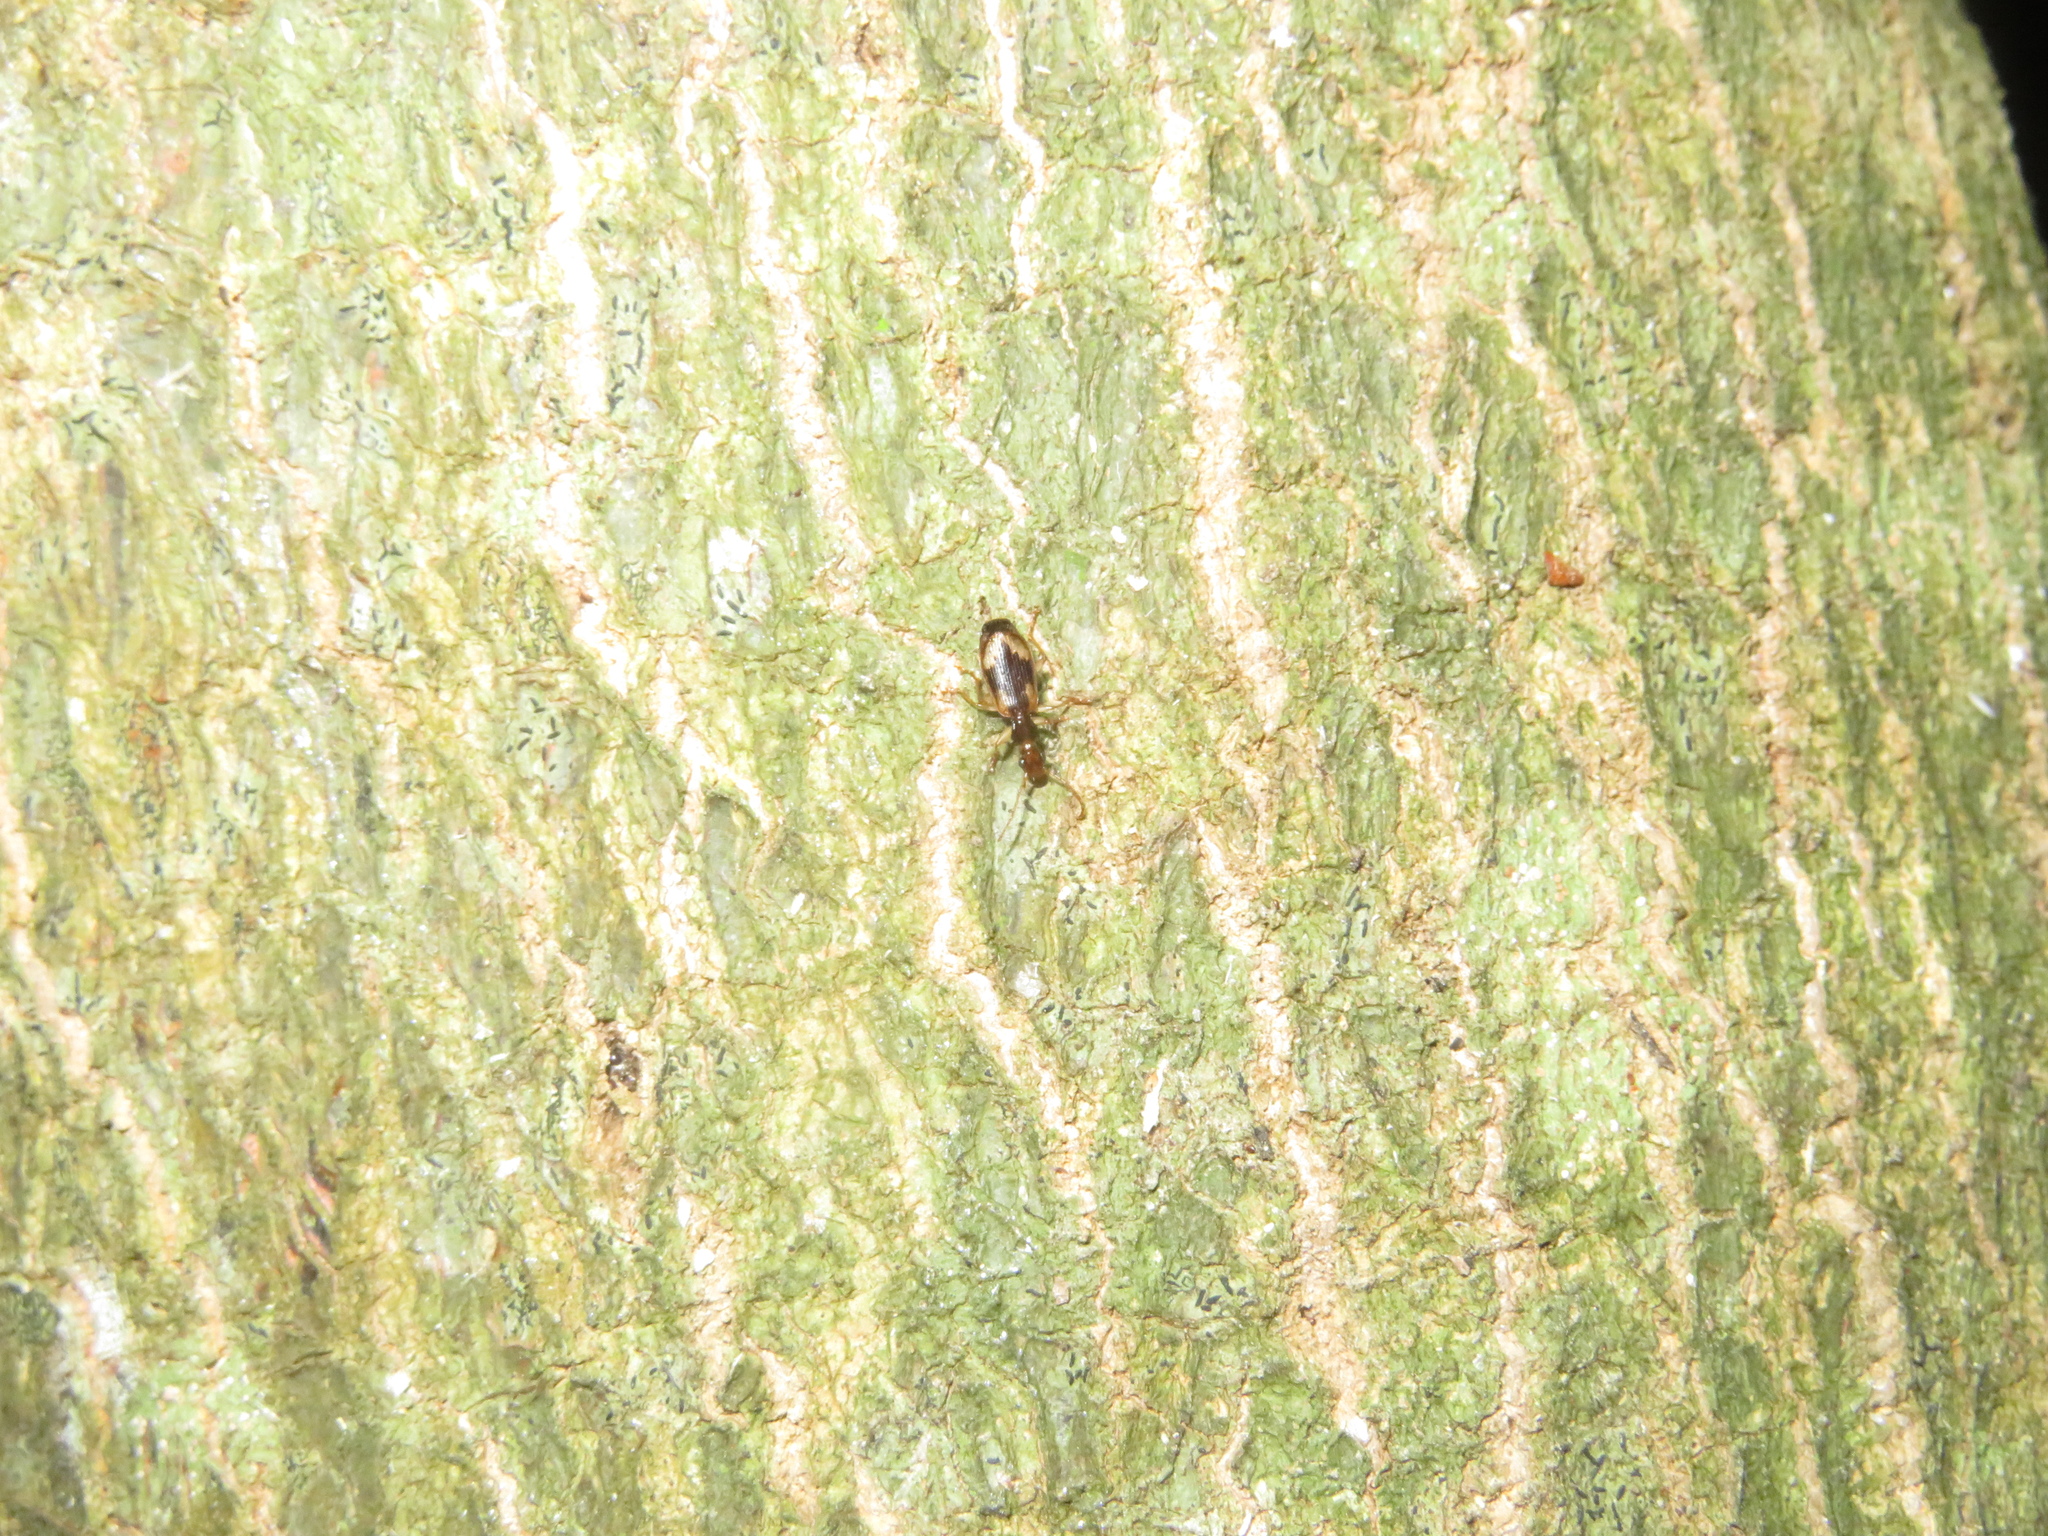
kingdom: Animalia
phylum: Arthropoda
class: Insecta
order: Coleoptera
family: Carabidae
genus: Demetrida
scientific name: Demetrida nasuta
